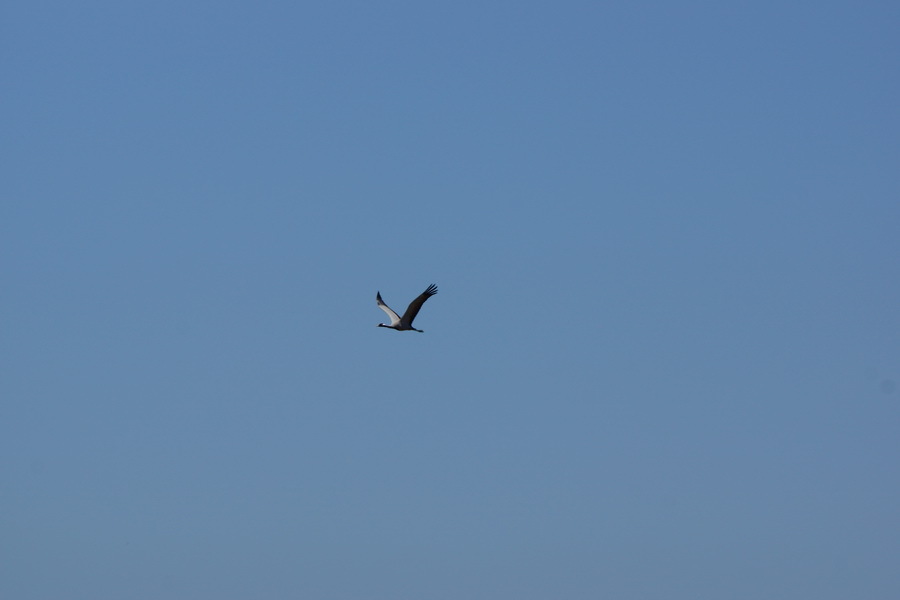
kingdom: Animalia
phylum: Chordata
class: Aves
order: Gruiformes
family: Gruidae
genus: Anthropoides
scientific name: Anthropoides virgo
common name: Demoiselle crane
